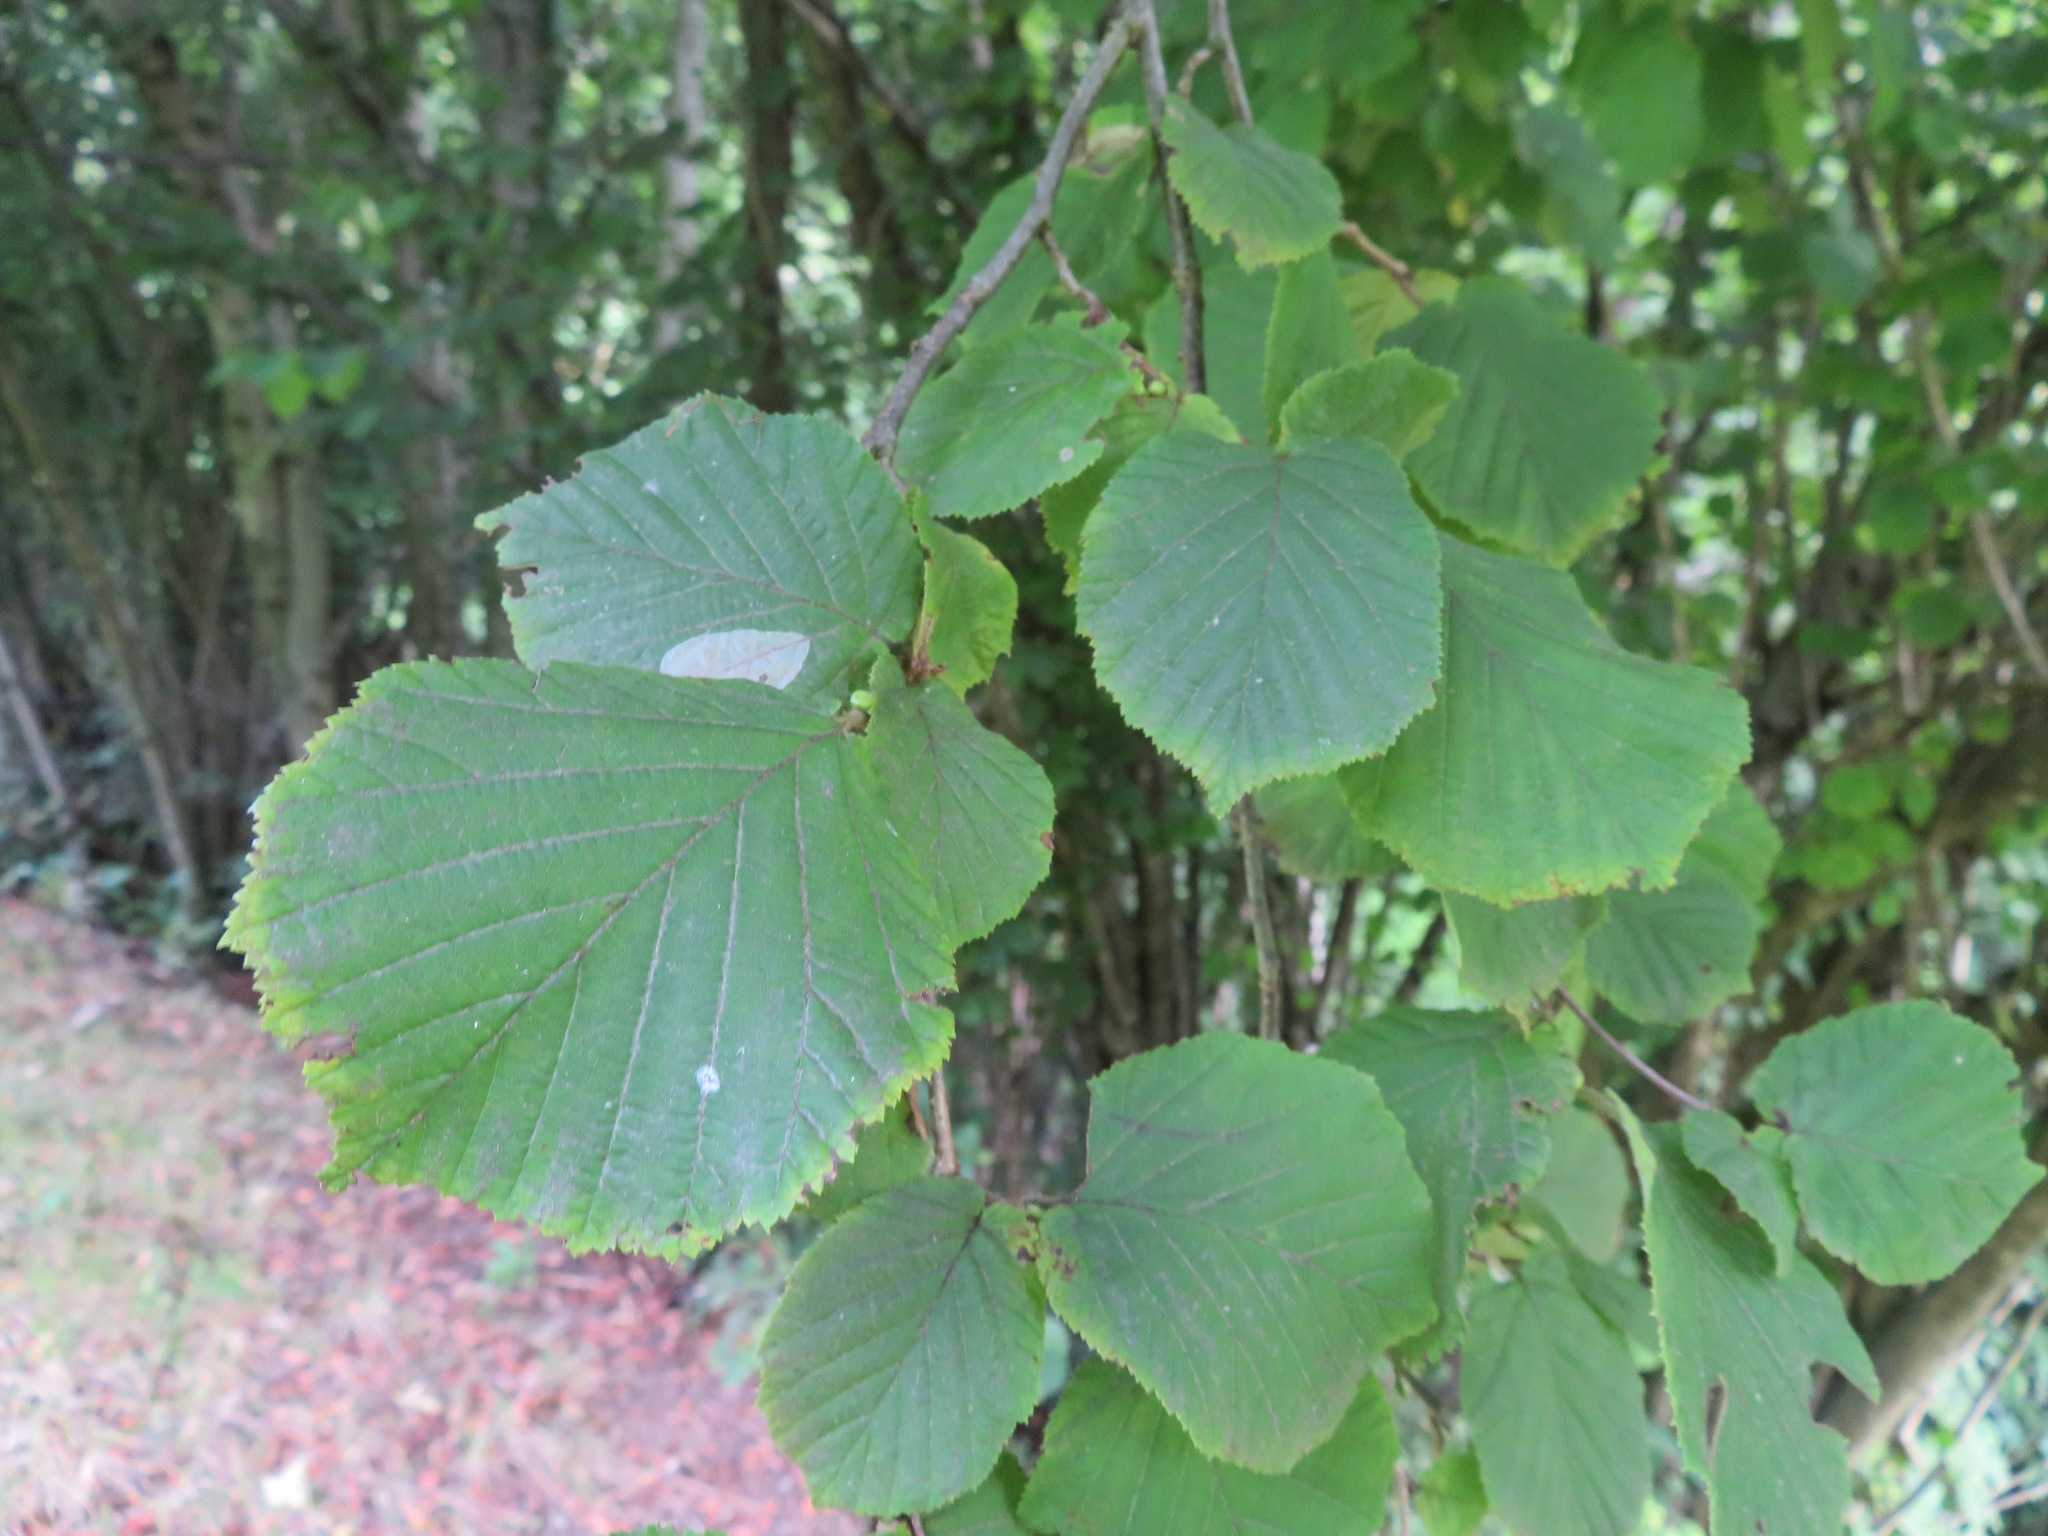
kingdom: Plantae
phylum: Tracheophyta
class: Magnoliopsida
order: Fagales
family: Betulaceae
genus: Corylus
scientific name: Corylus avellana
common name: European hazel
